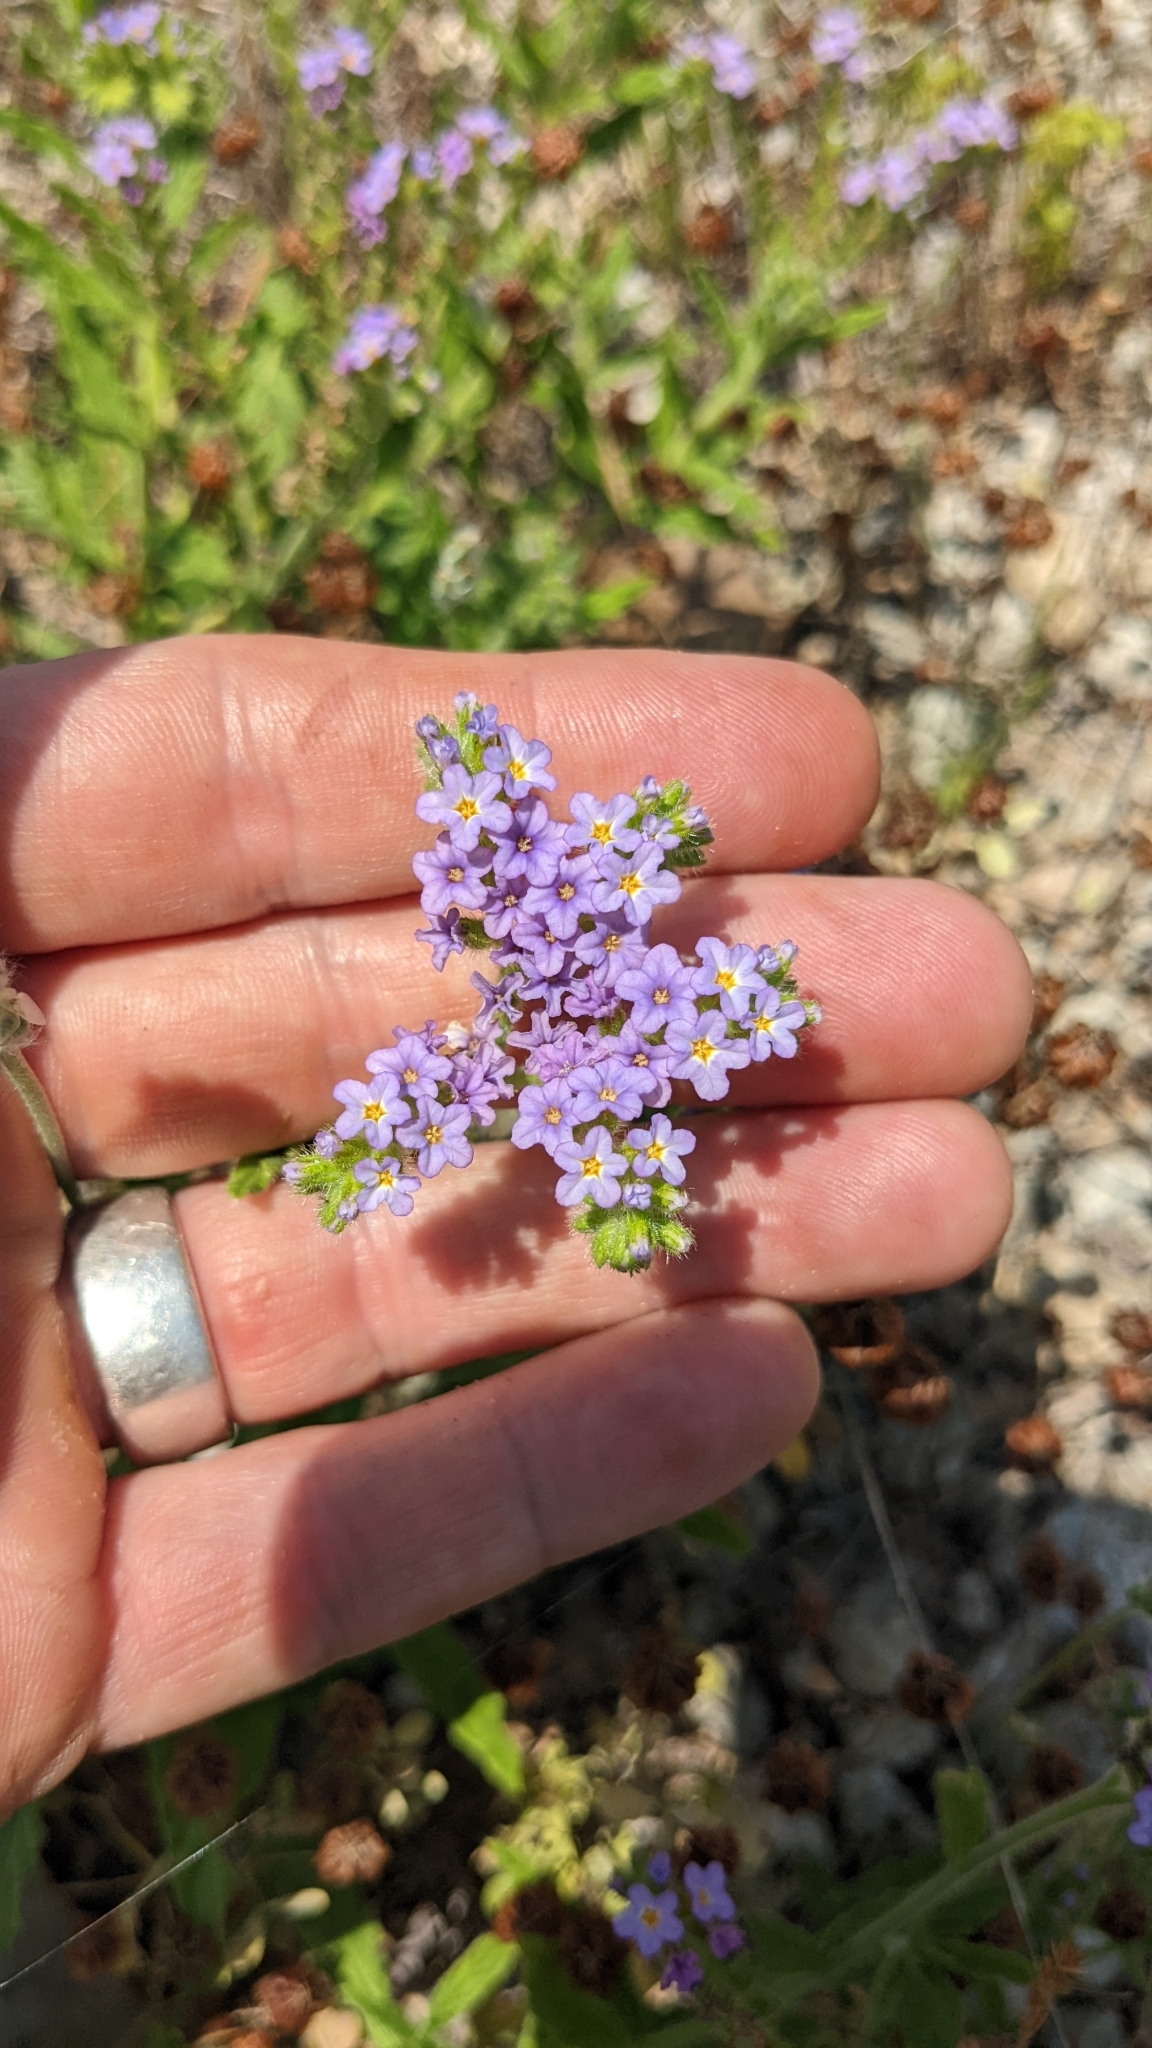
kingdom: Plantae
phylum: Tracheophyta
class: Magnoliopsida
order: Boraginales
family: Heliotropiaceae
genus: Heliotropium
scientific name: Heliotropium amplexicaule
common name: Clasping heliotrope
